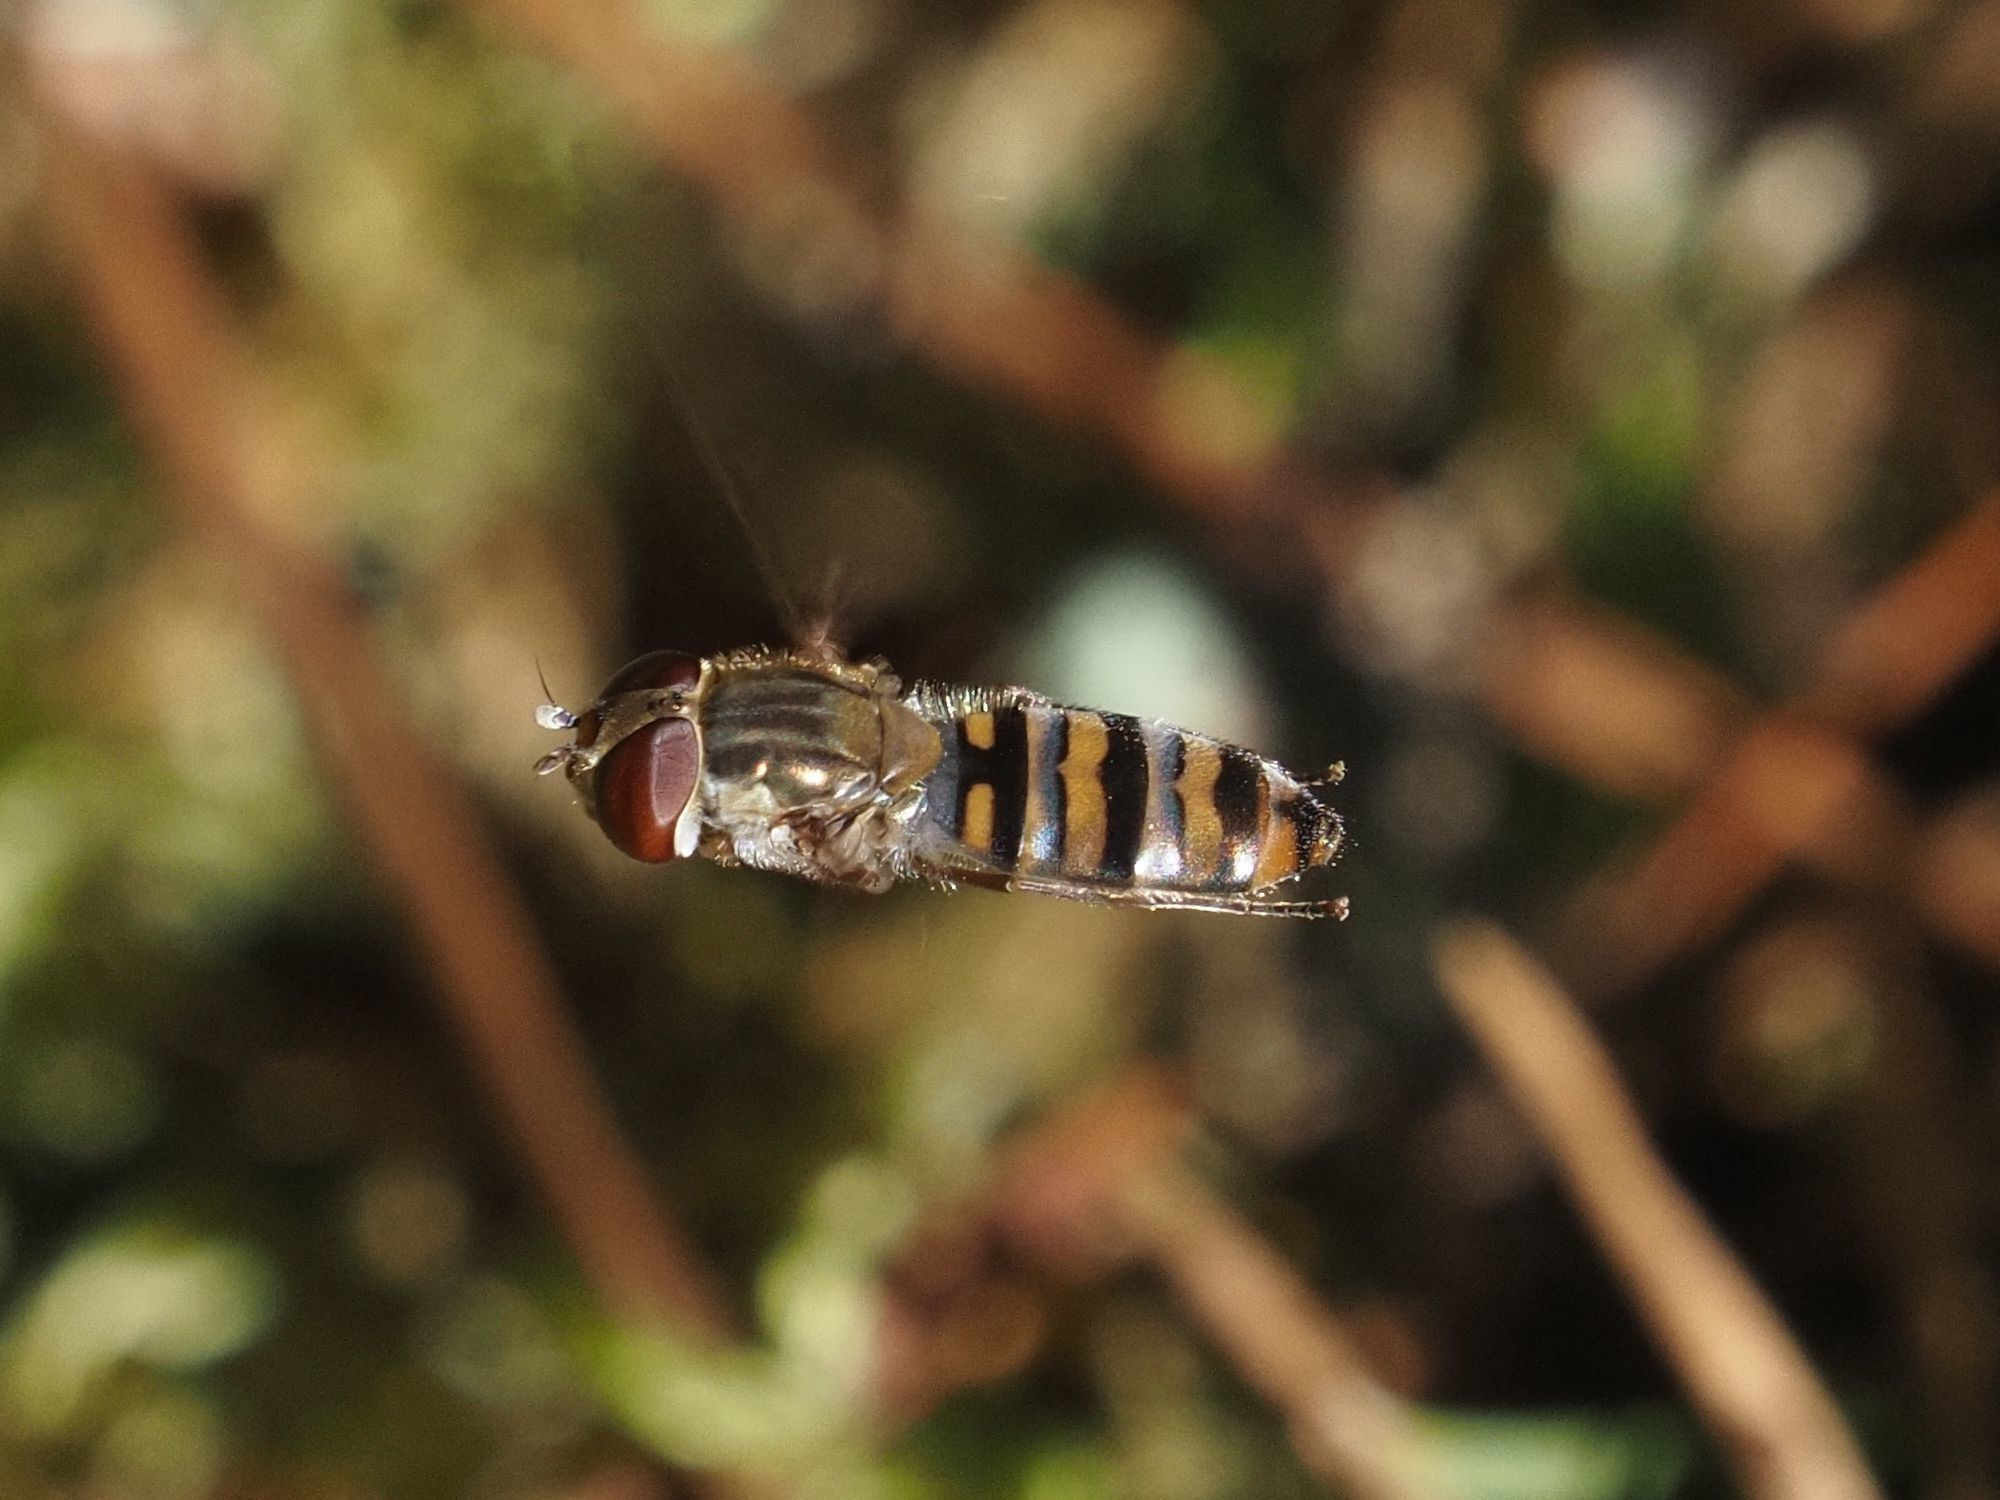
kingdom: Animalia
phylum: Arthropoda
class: Insecta
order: Diptera
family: Syrphidae
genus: Episyrphus
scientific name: Episyrphus balteatus
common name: Marmalade hoverfly
